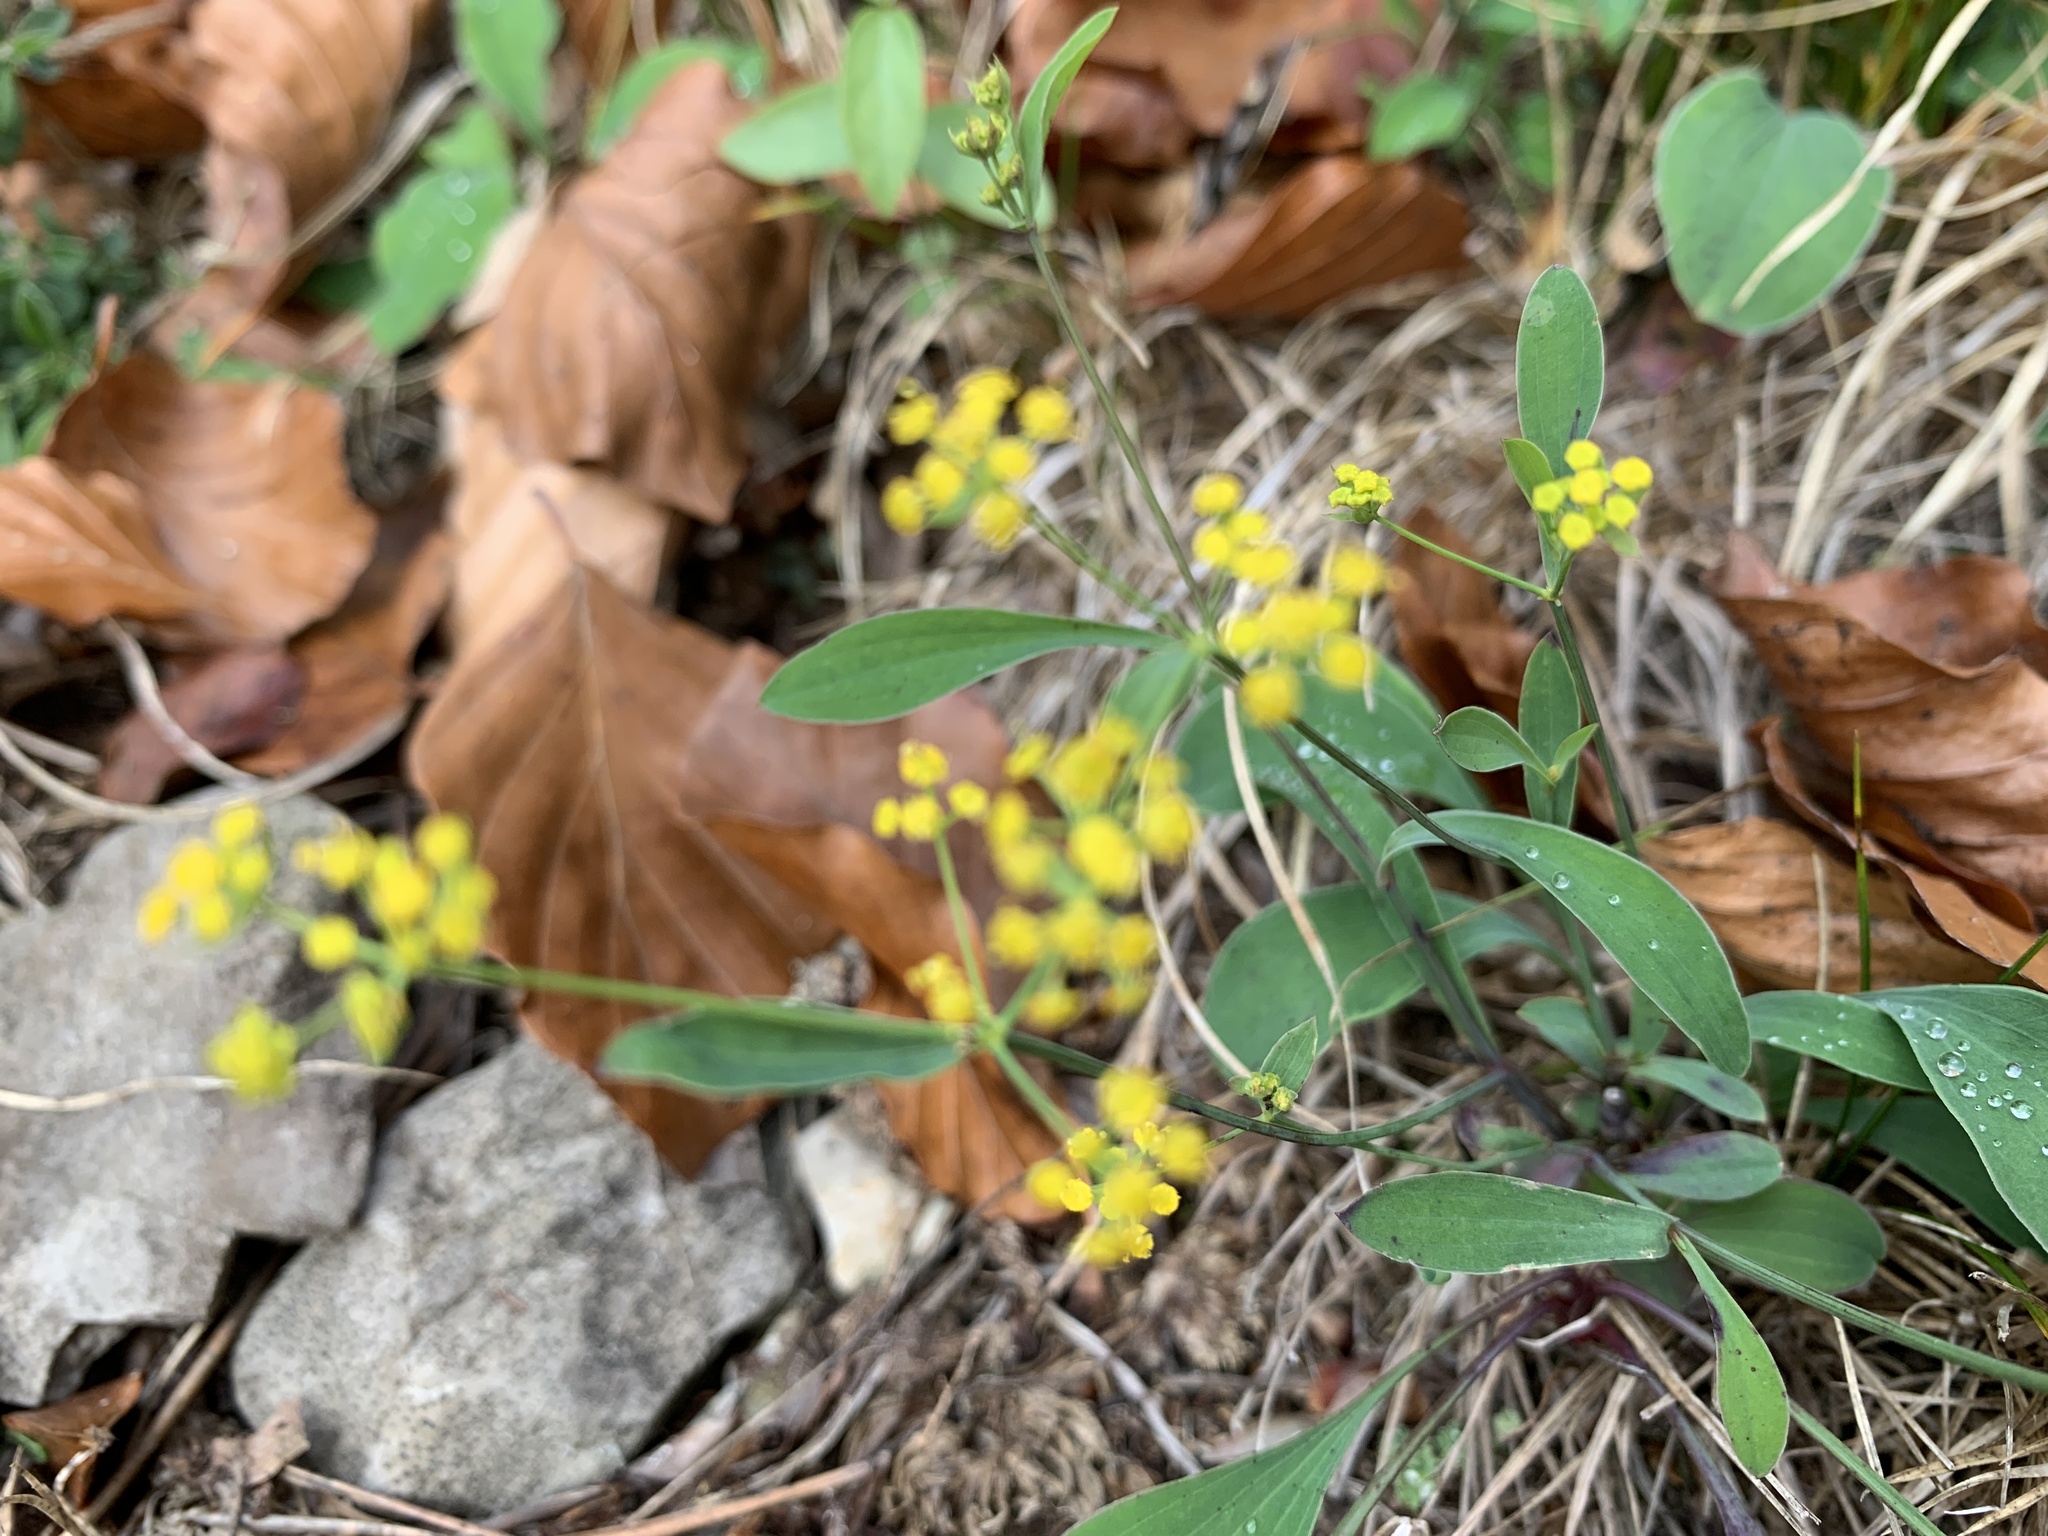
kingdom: Plantae
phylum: Tracheophyta
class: Magnoliopsida
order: Apiales
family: Apiaceae
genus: Bupleurum
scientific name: Bupleurum falcatum
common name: Sickle-leaved hare's-ear
